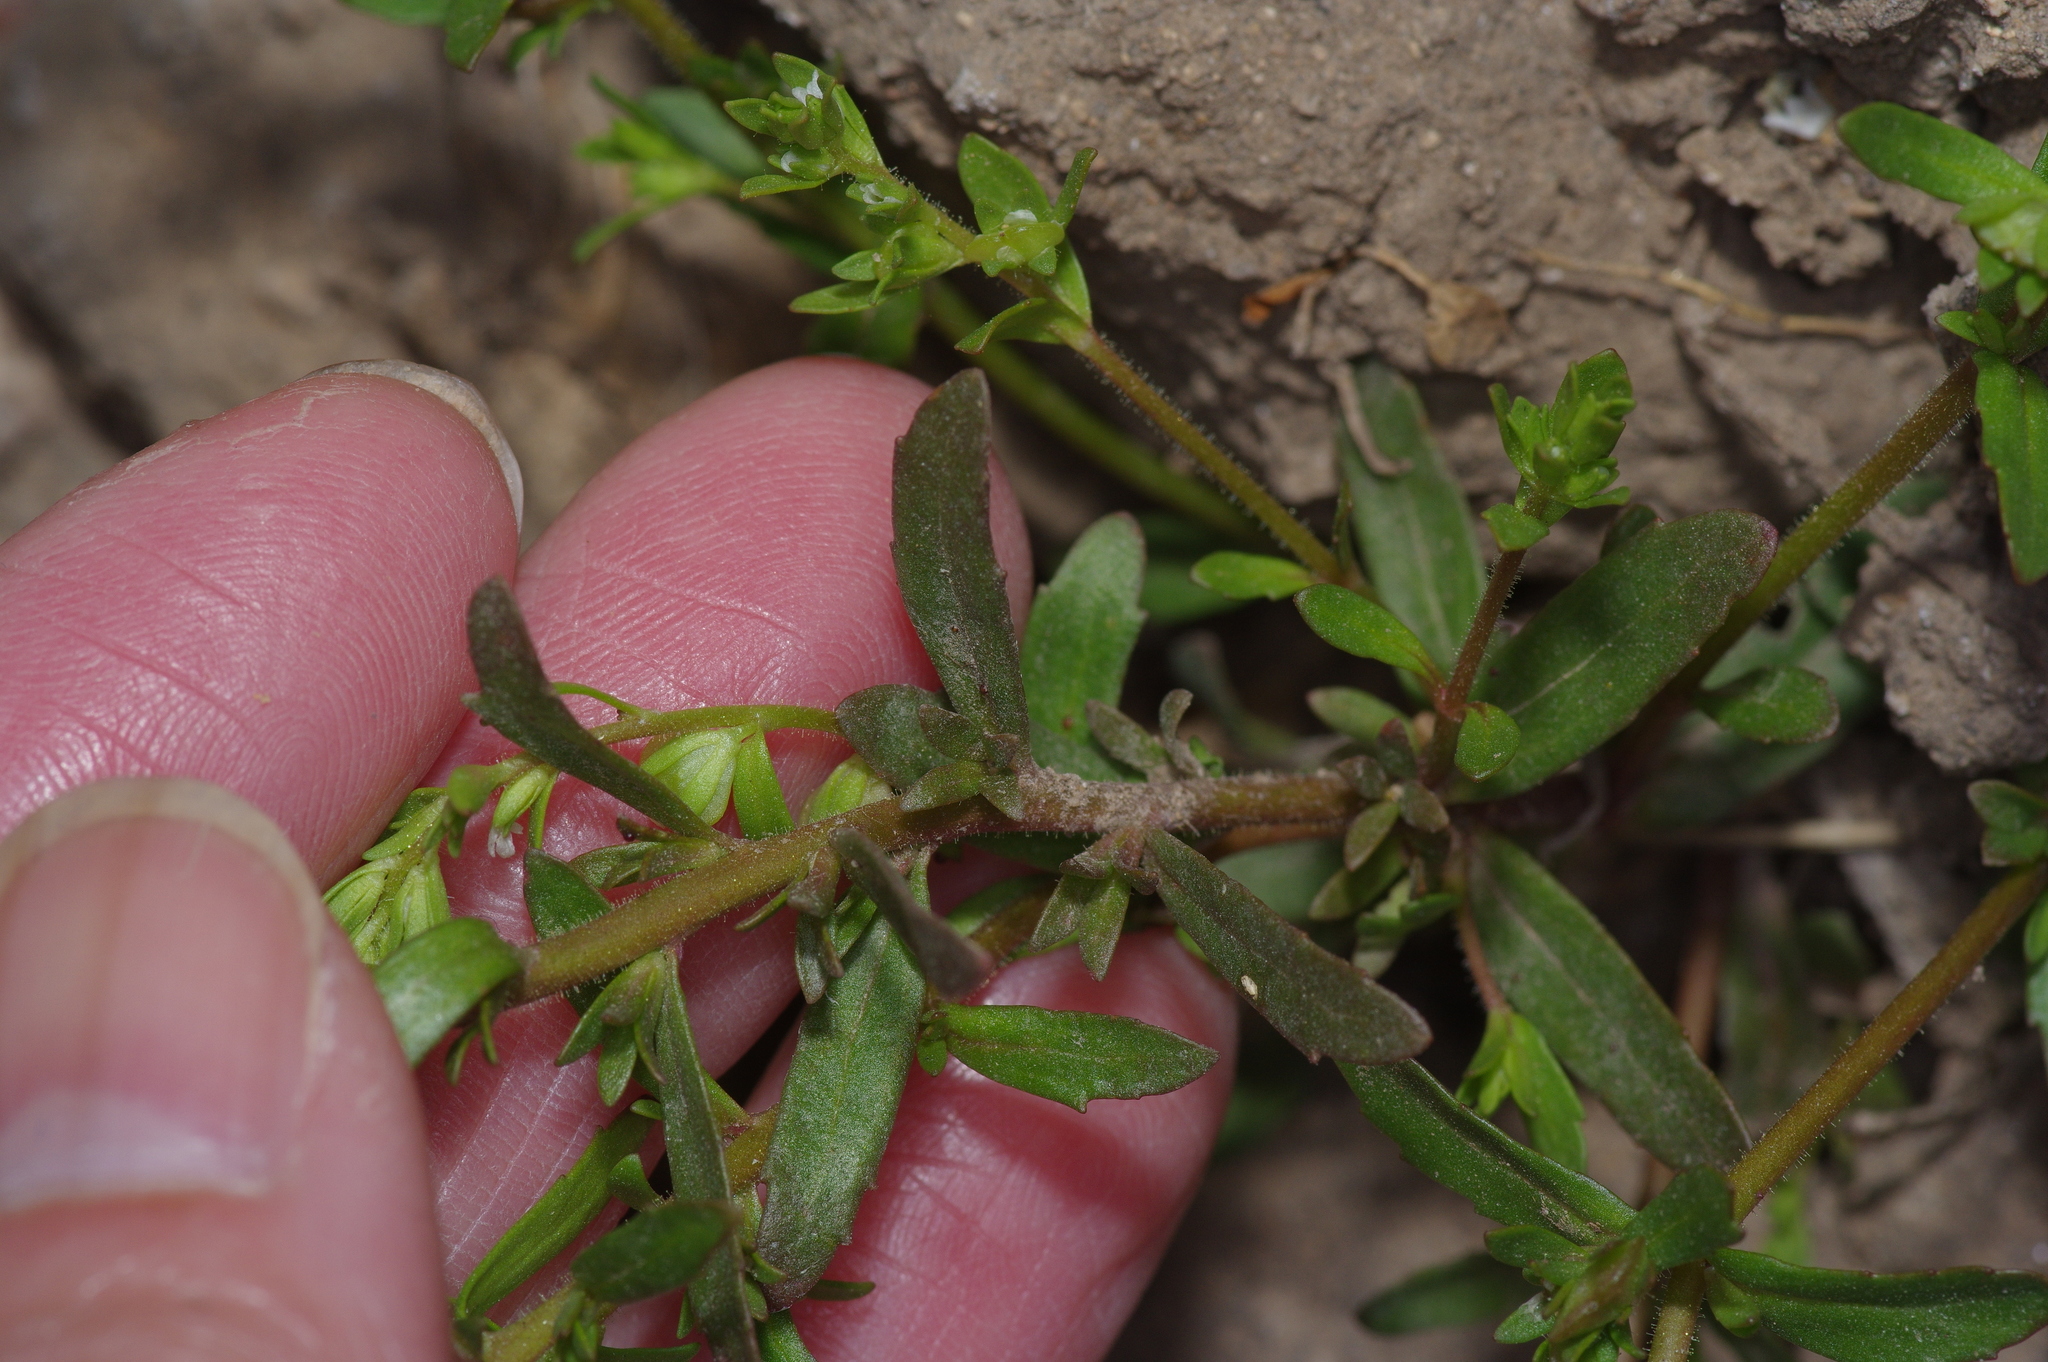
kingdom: Plantae
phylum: Tracheophyta
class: Magnoliopsida
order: Lamiales
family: Plantaginaceae
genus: Veronica
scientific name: Veronica peregrina
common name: Neckweed
